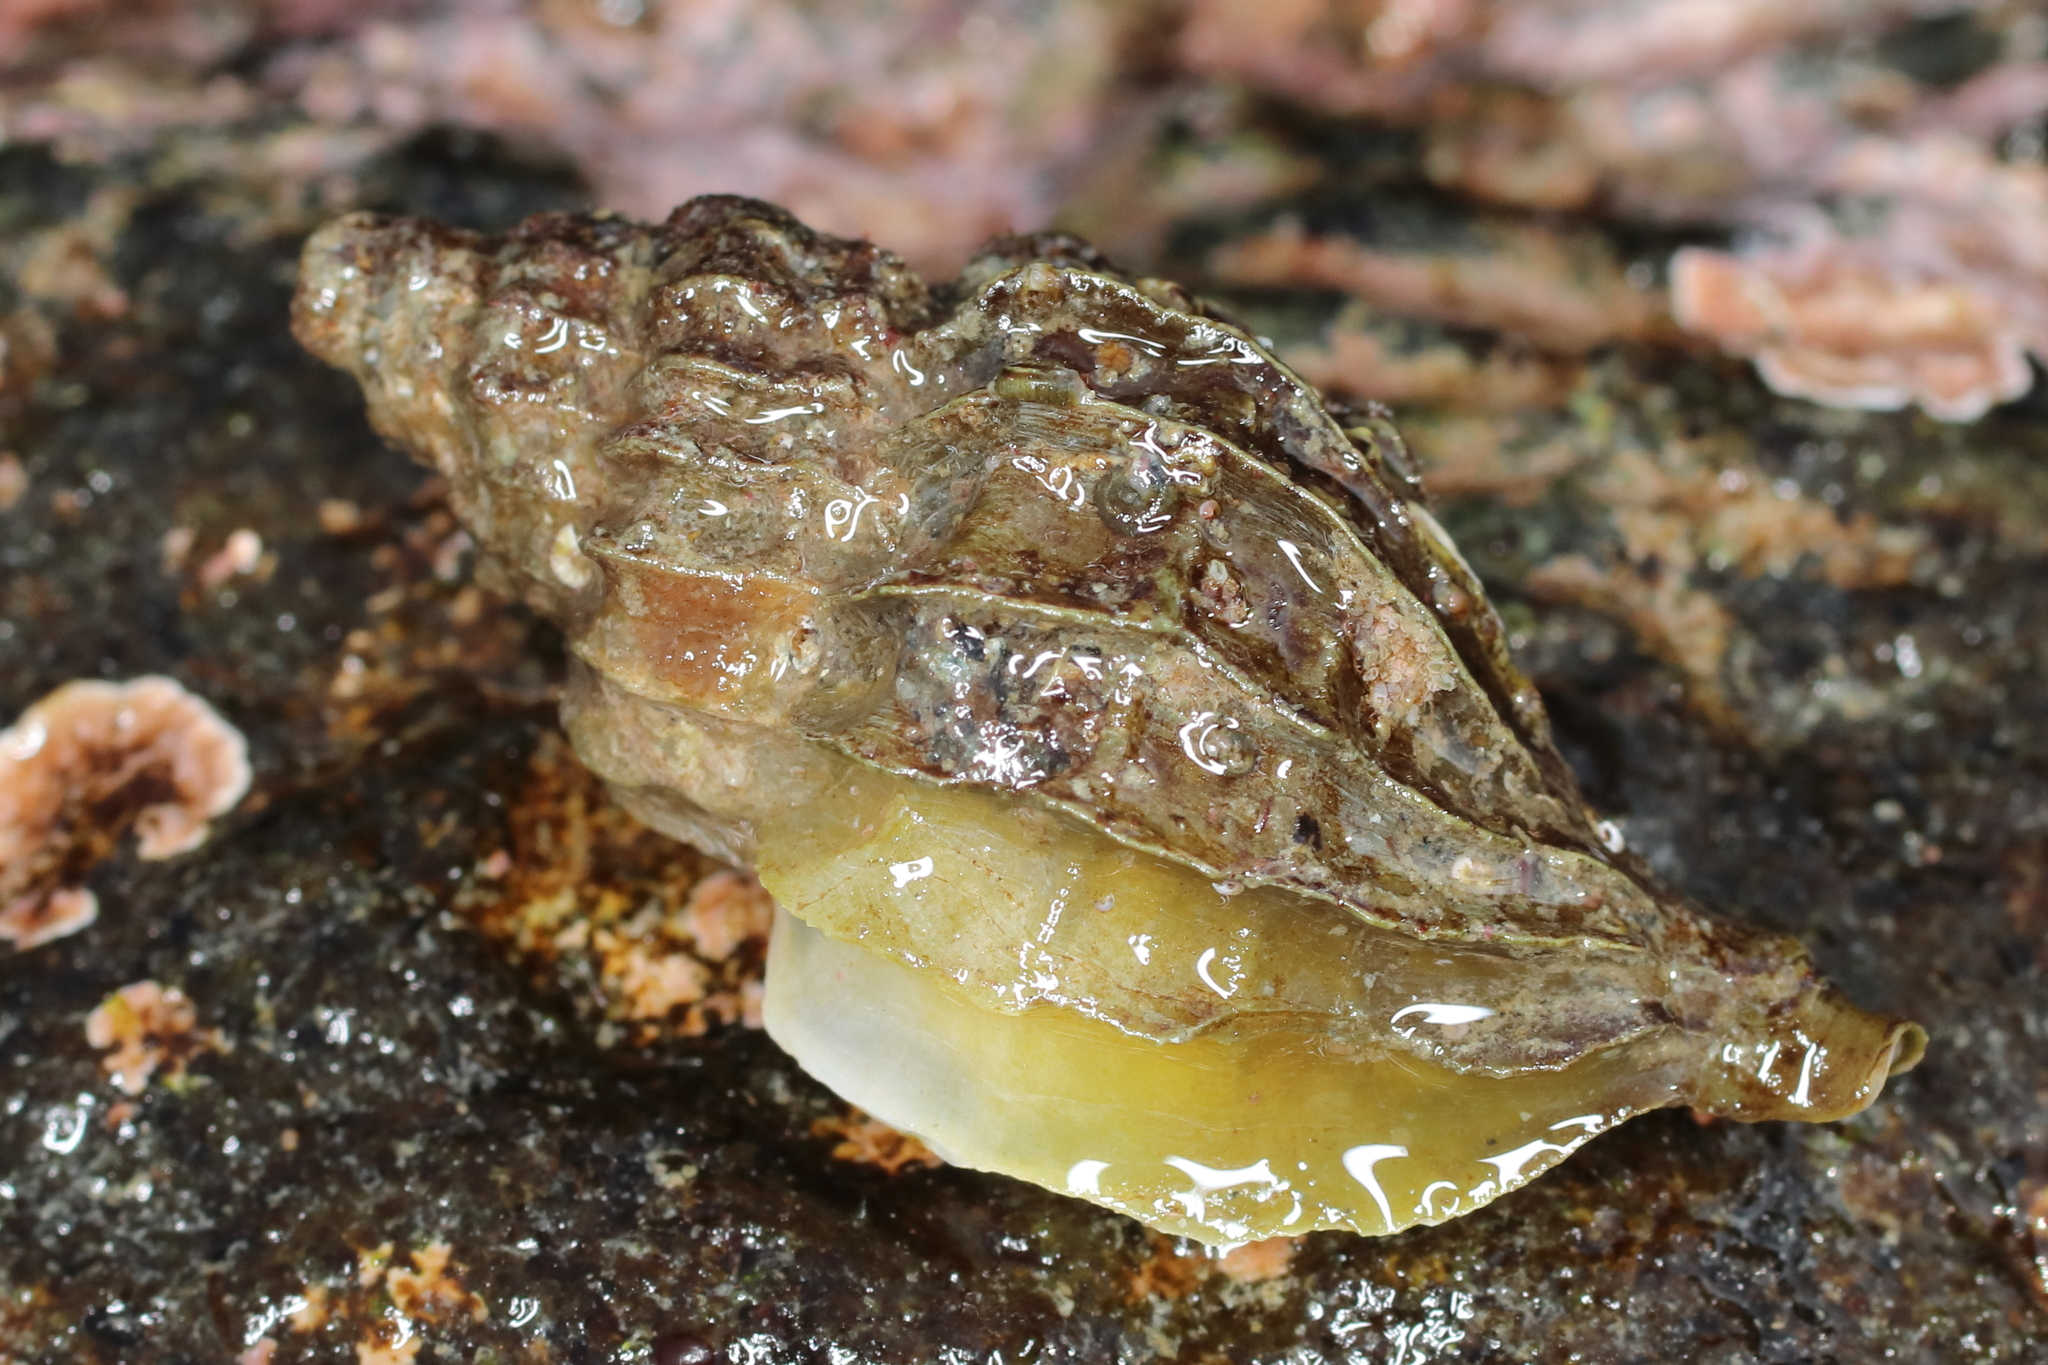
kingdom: Animalia
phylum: Mollusca
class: Gastropoda
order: Neogastropoda
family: Muricidae
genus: Scabrotrophon
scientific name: Scabrotrophon stuarti
